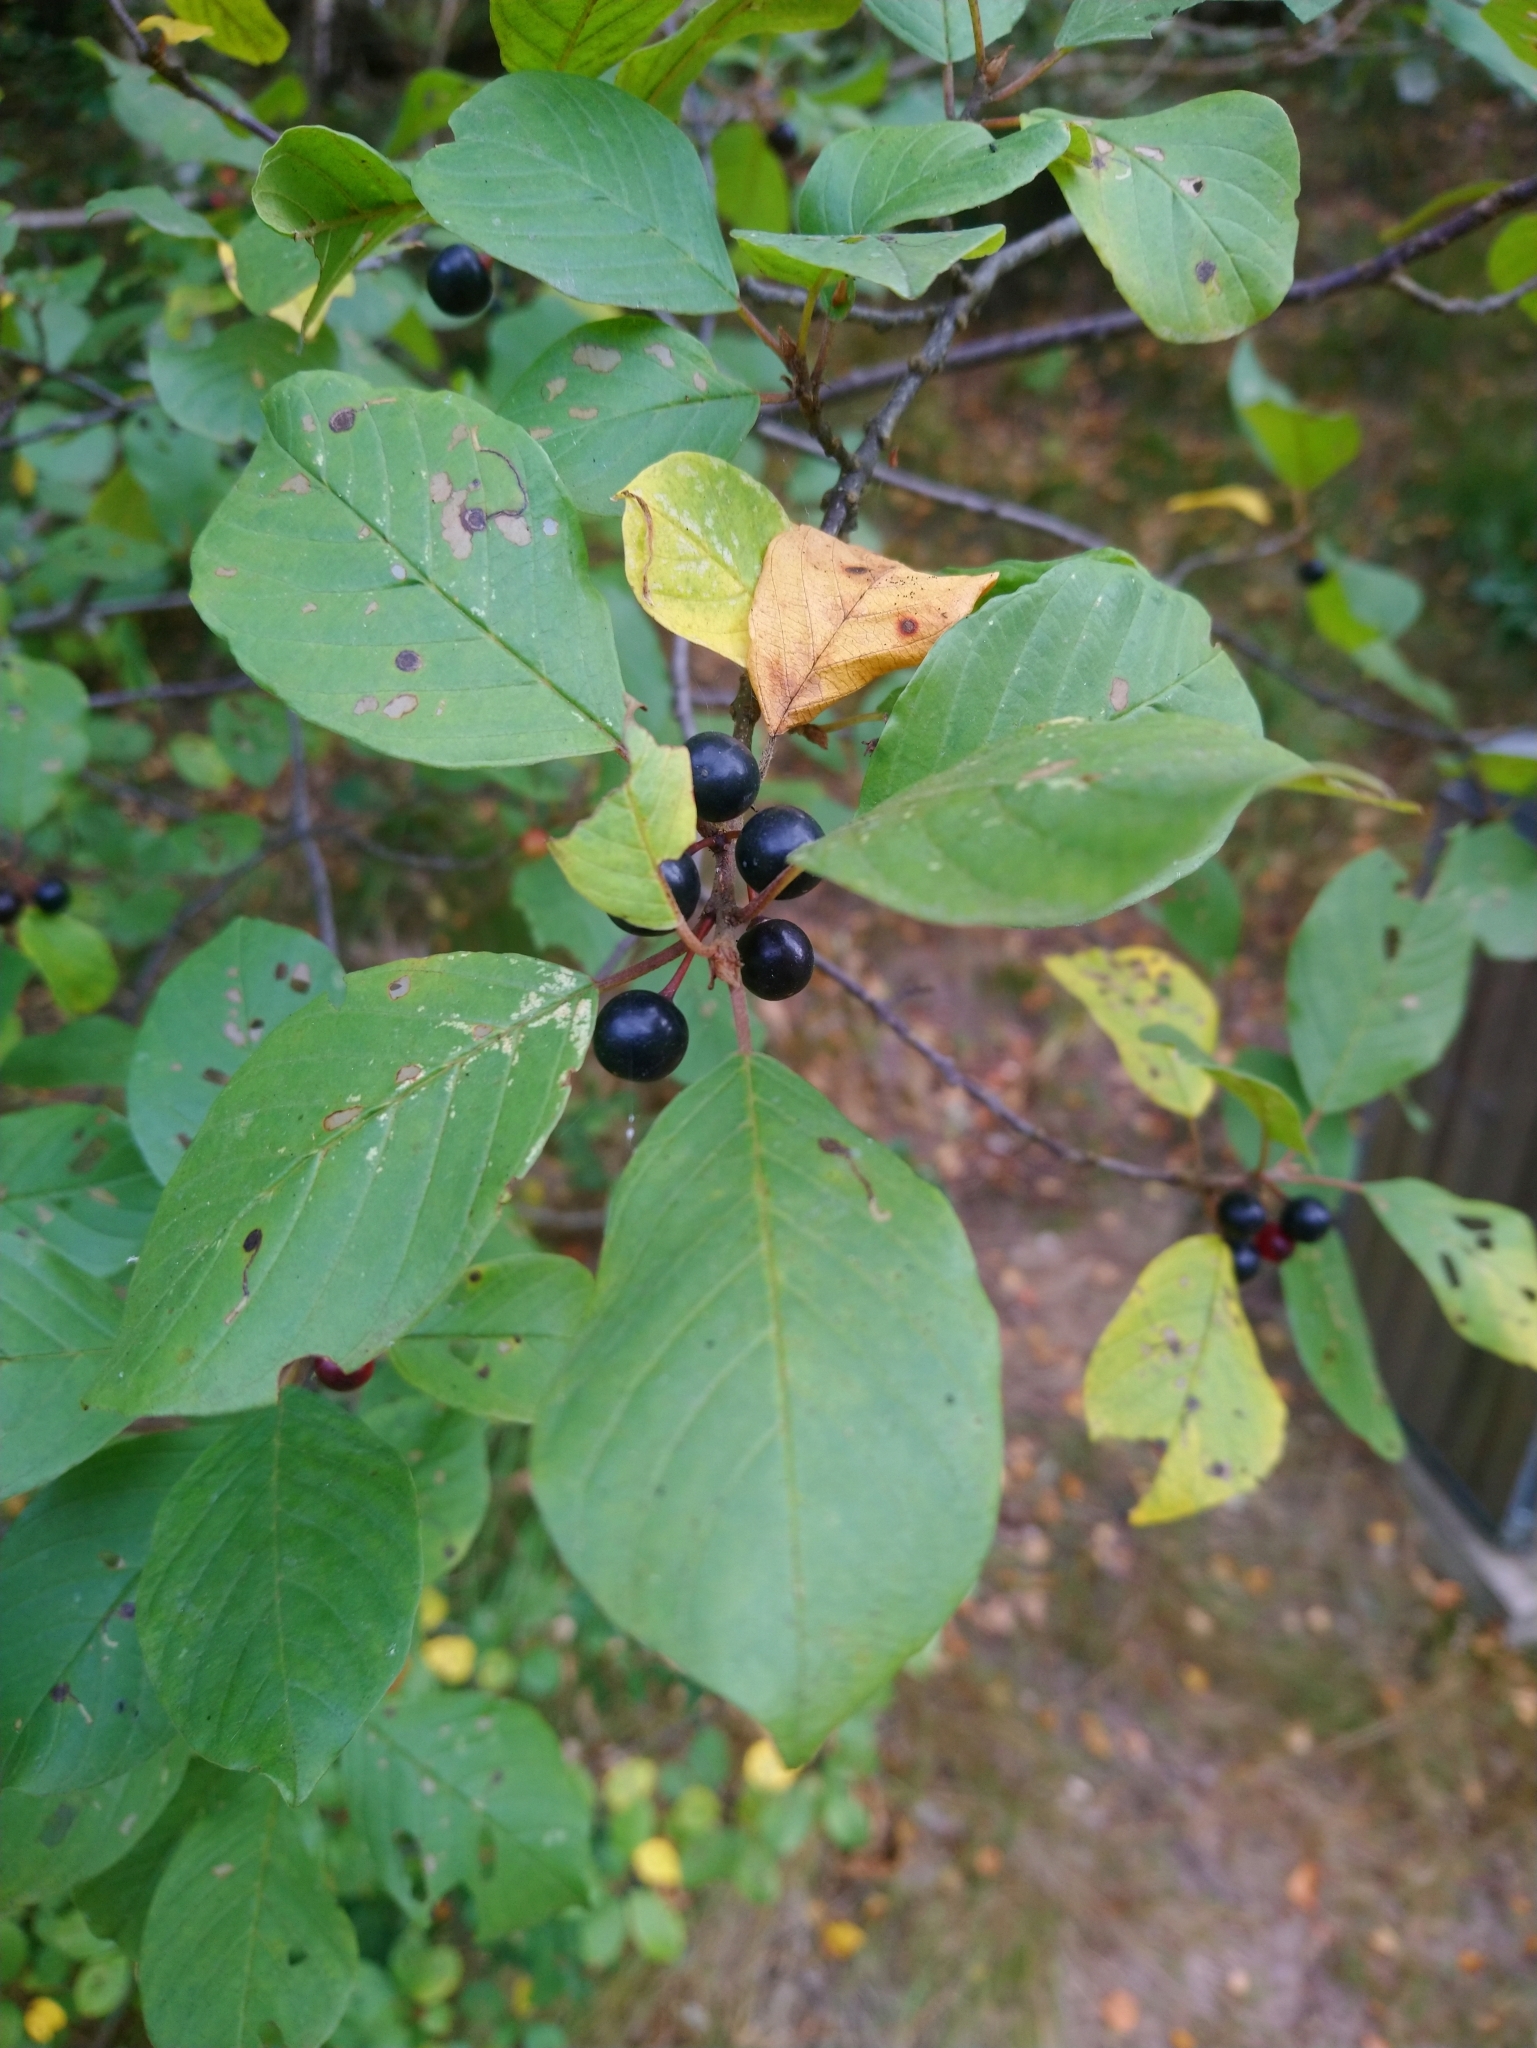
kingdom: Plantae
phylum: Tracheophyta
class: Magnoliopsida
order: Rosales
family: Rhamnaceae
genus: Frangula
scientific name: Frangula alnus
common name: Alder buckthorn
